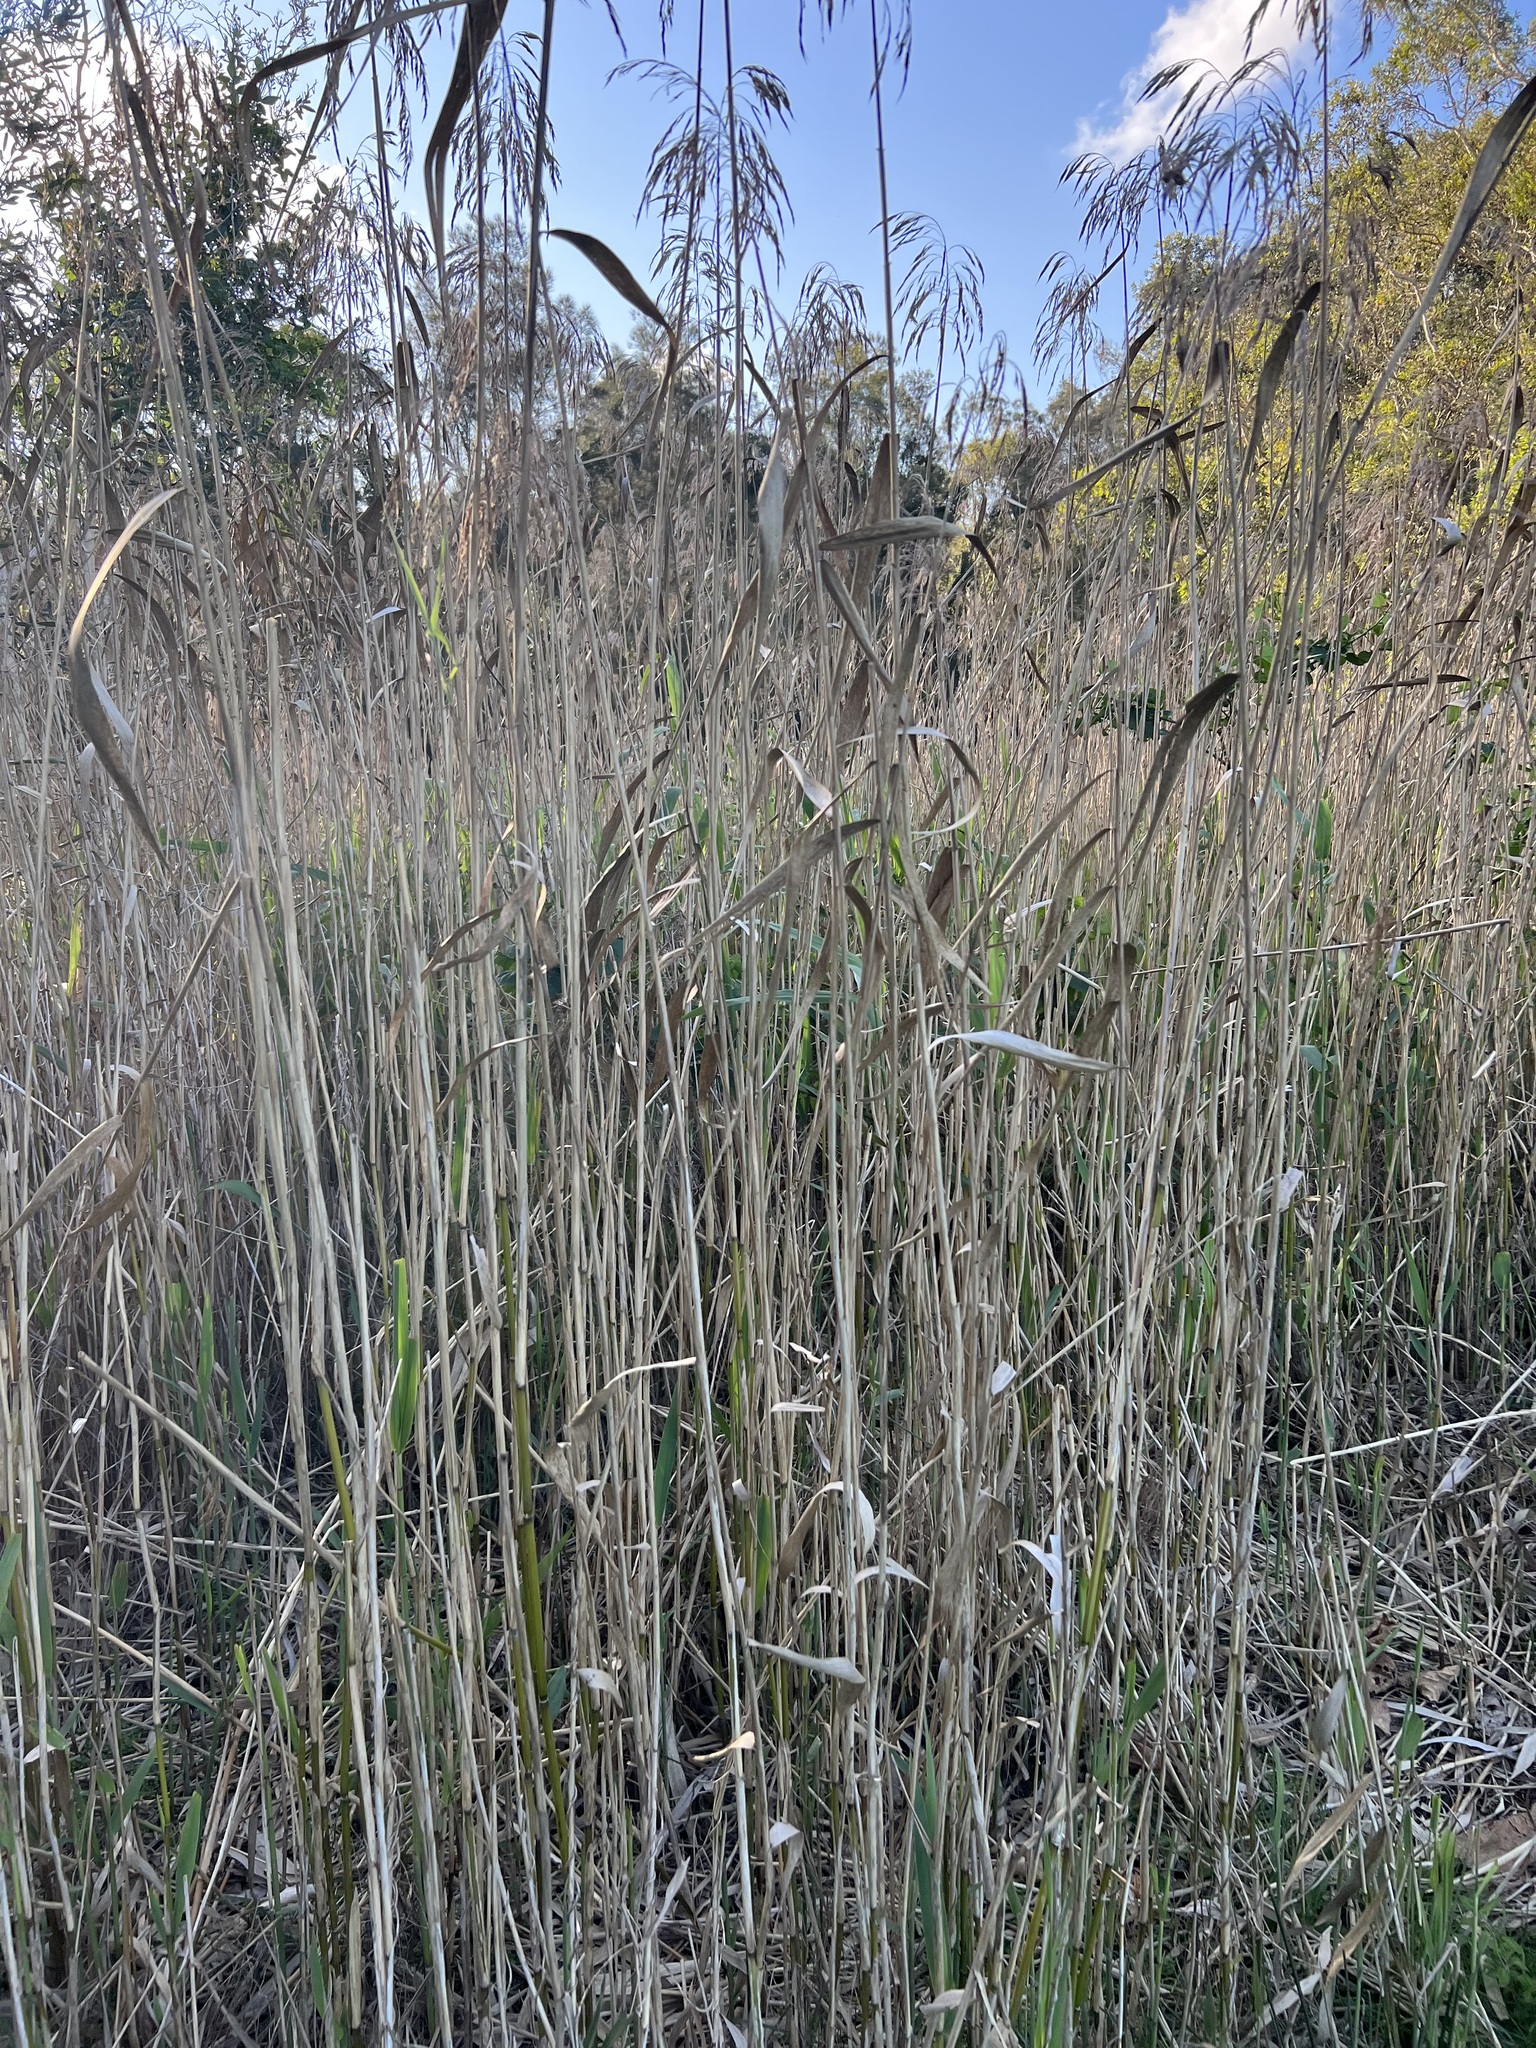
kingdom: Plantae
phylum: Tracheophyta
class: Liliopsida
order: Poales
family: Poaceae
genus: Phragmites
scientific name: Phragmites australis
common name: Common reed
